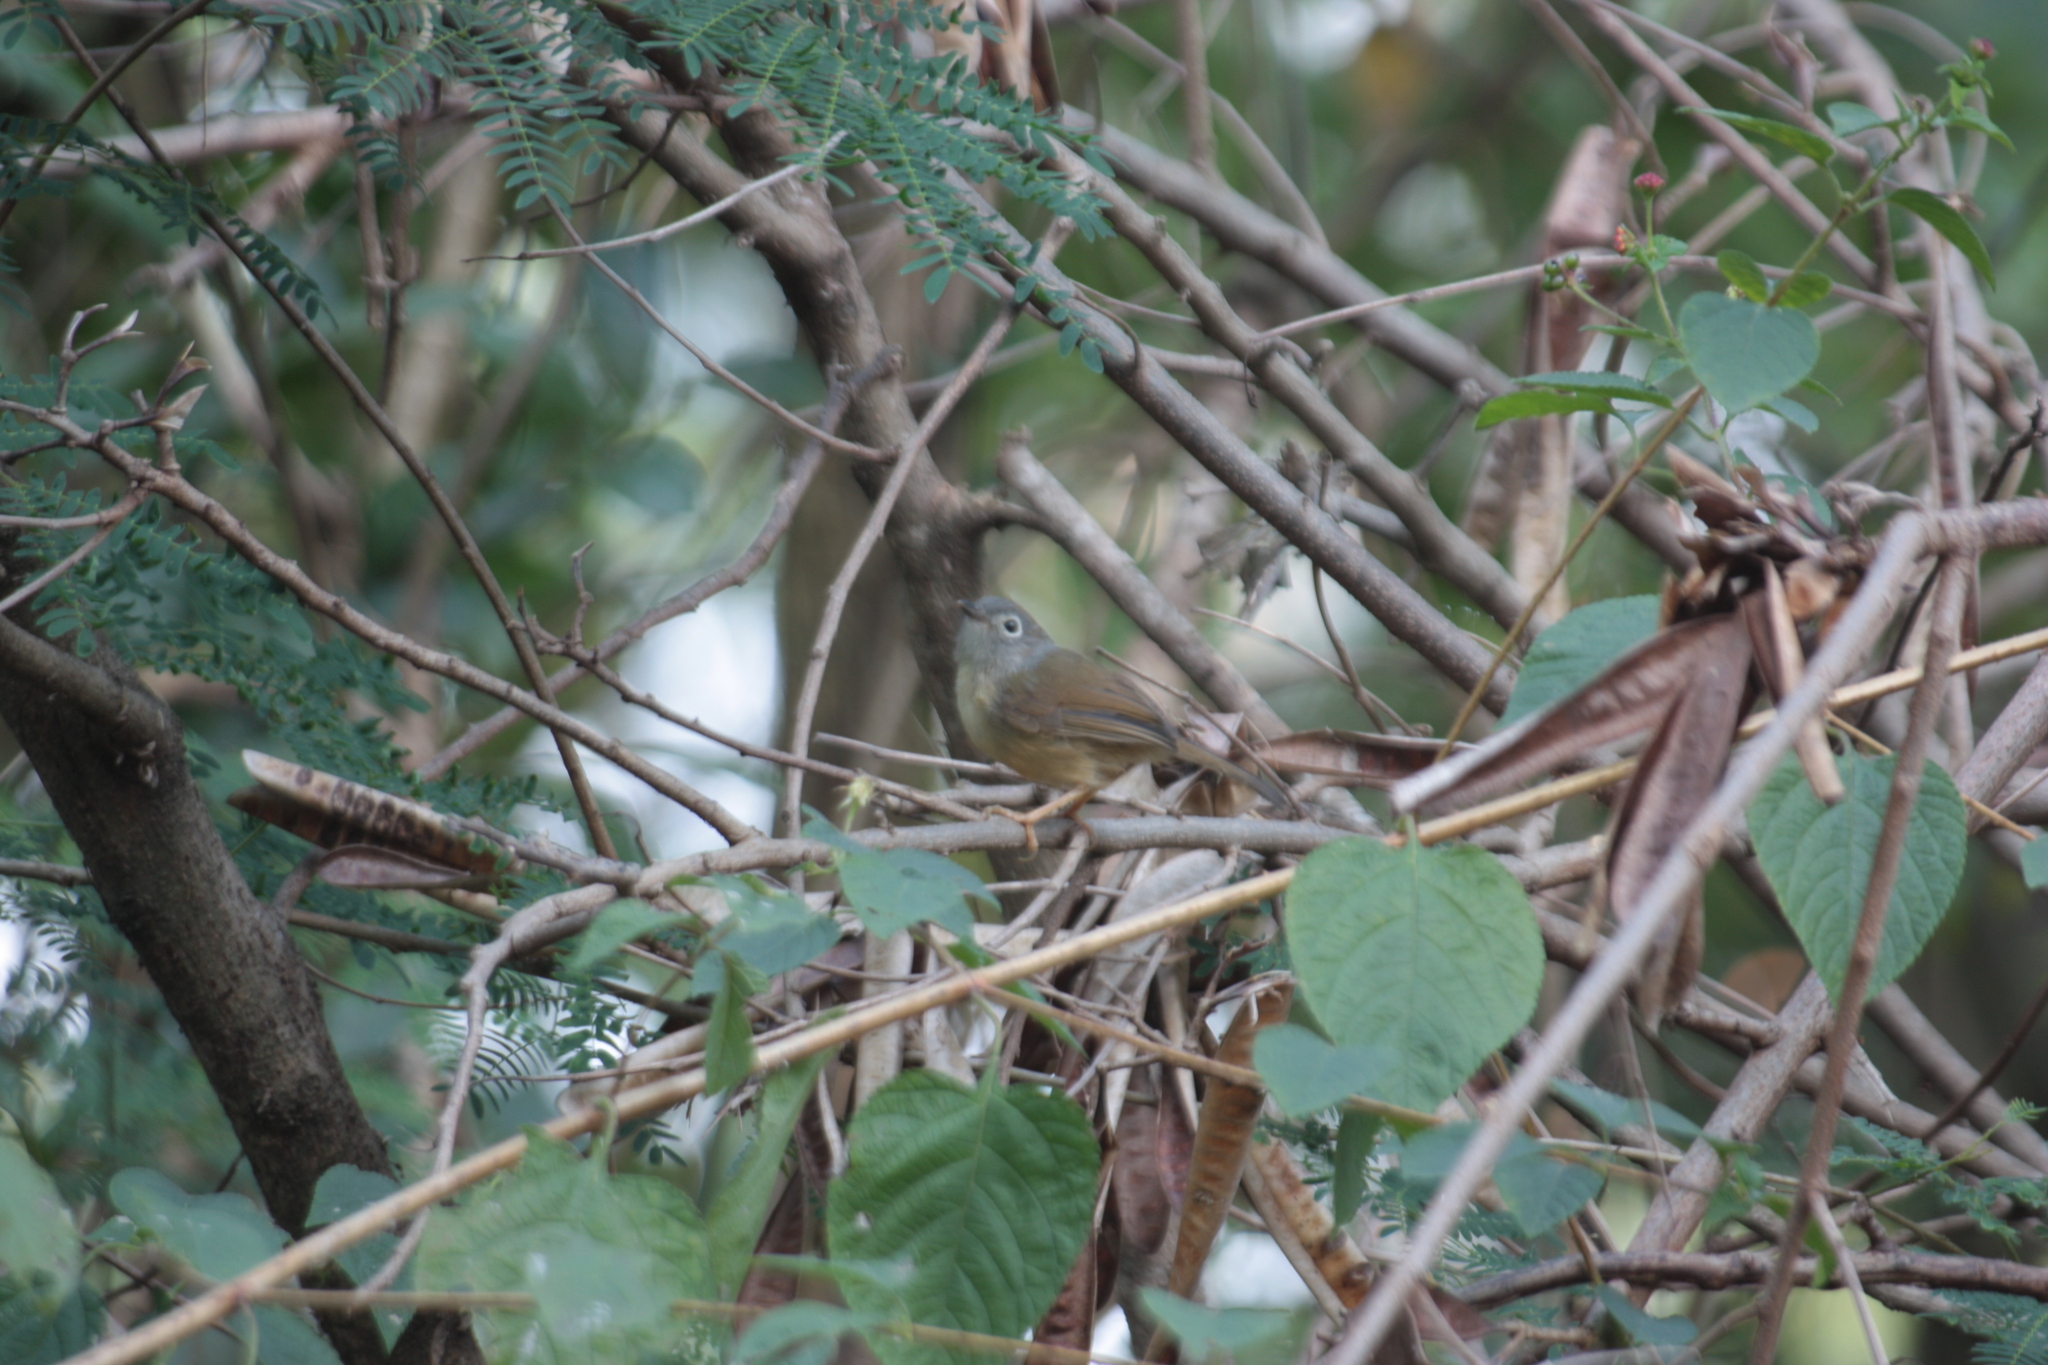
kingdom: Animalia
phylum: Chordata
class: Aves
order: Passeriformes
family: Pellorneidae
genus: Alcippe
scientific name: Alcippe morrisonia
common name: Grey-cheeked fulvetta
